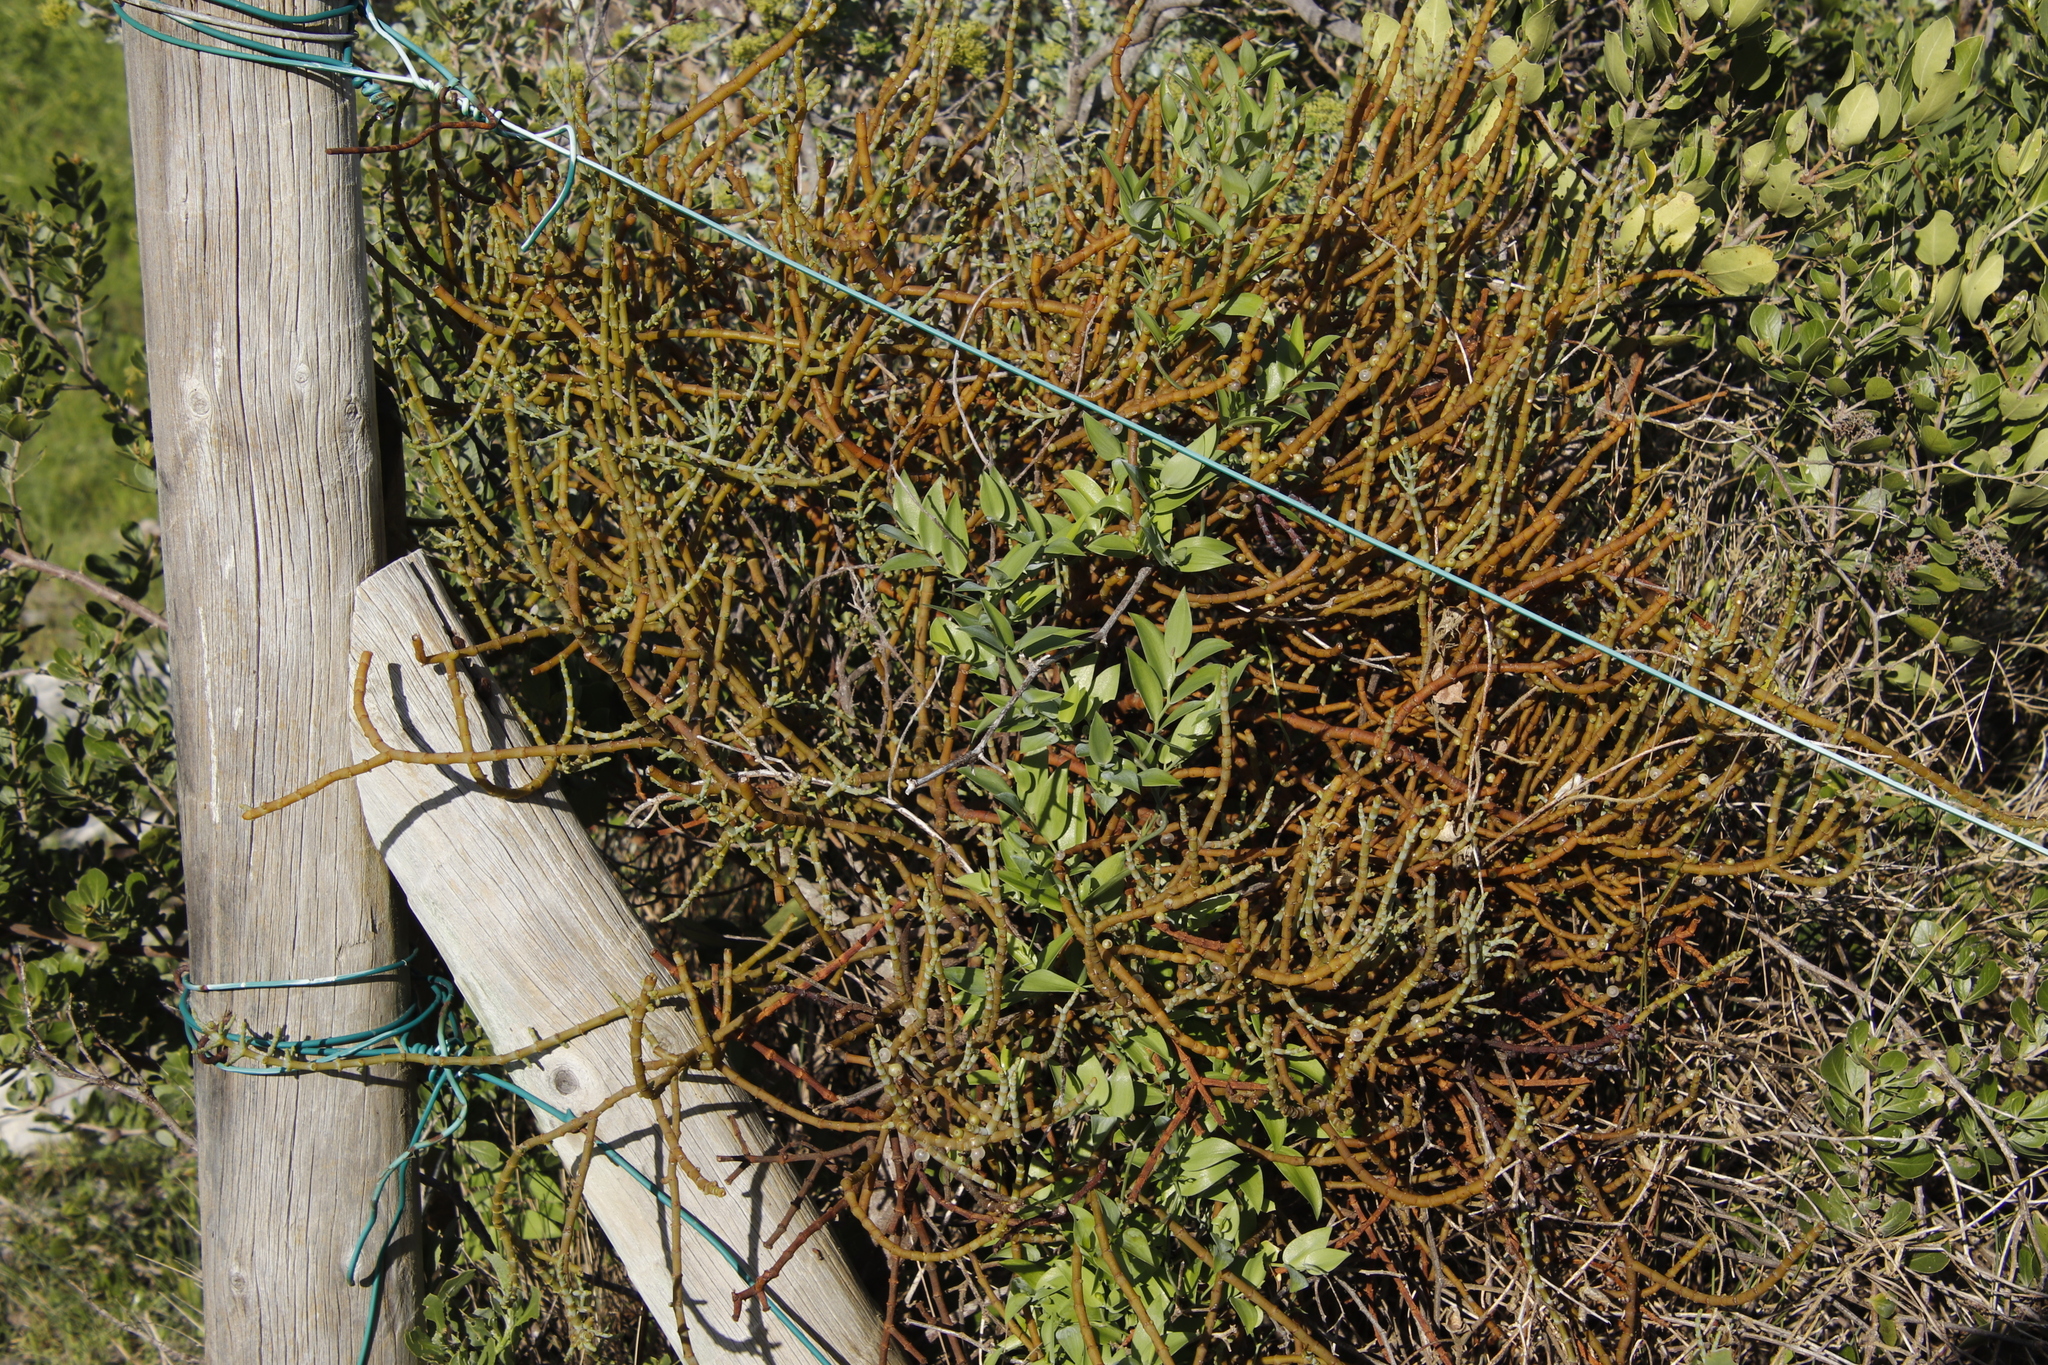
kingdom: Plantae
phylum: Tracheophyta
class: Magnoliopsida
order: Santalales
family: Viscaceae
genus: Viscum
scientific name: Viscum capense
